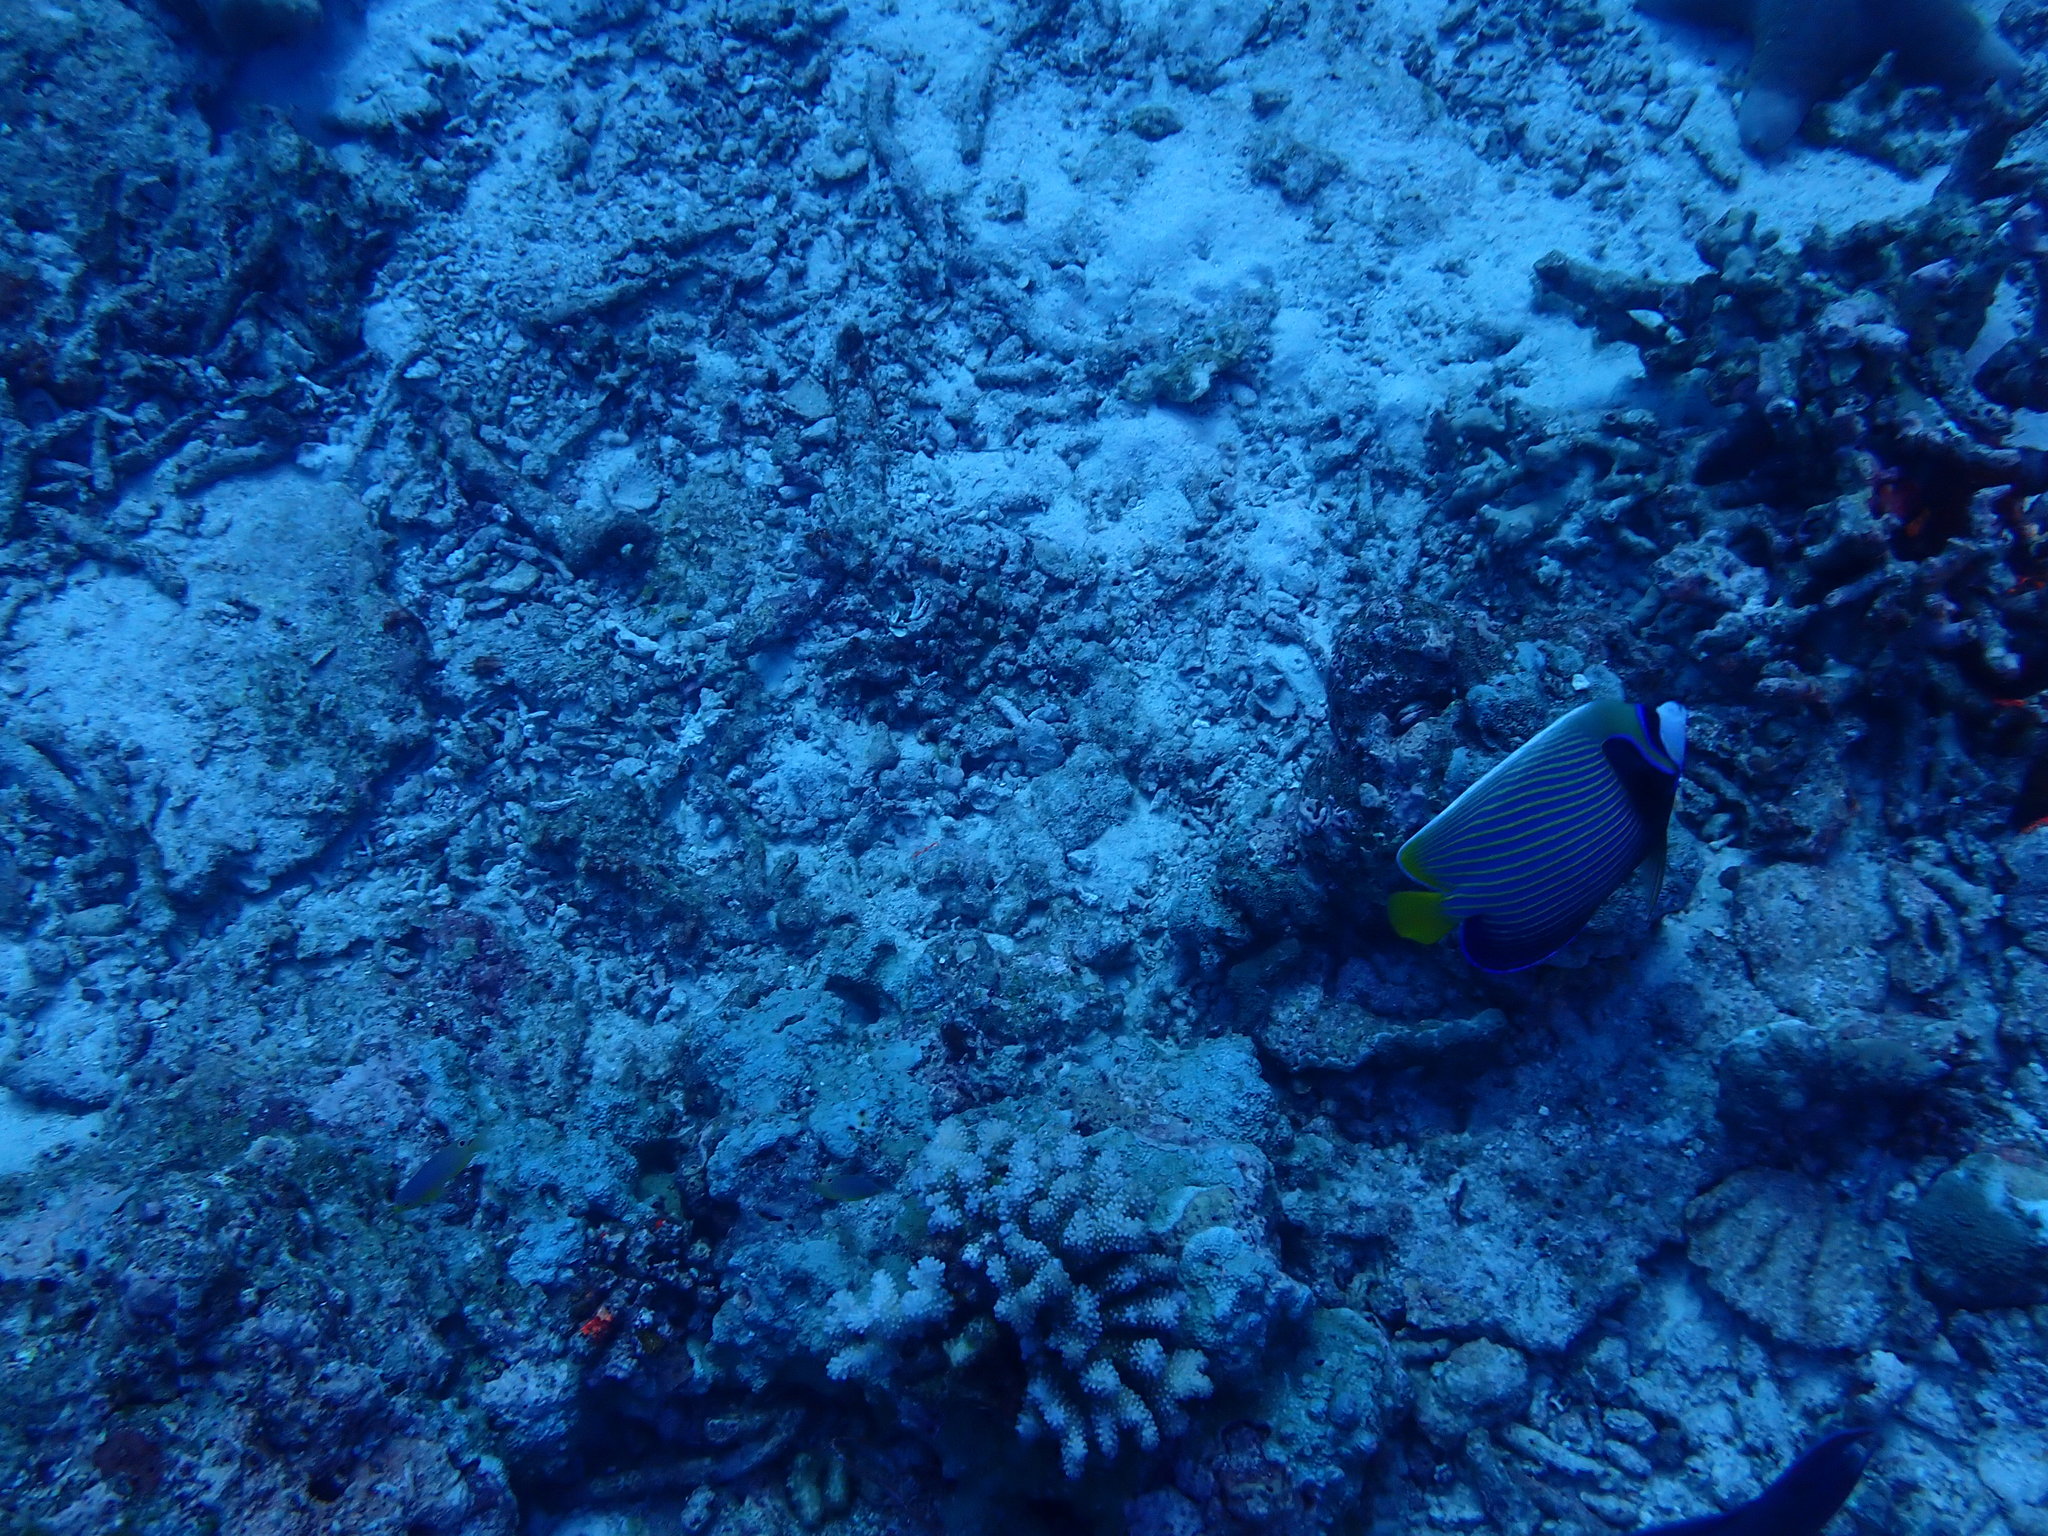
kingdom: Animalia
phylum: Chordata
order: Perciformes
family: Pomacanthidae
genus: Pomacanthus
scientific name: Pomacanthus imperator
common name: Emperor angelfish
